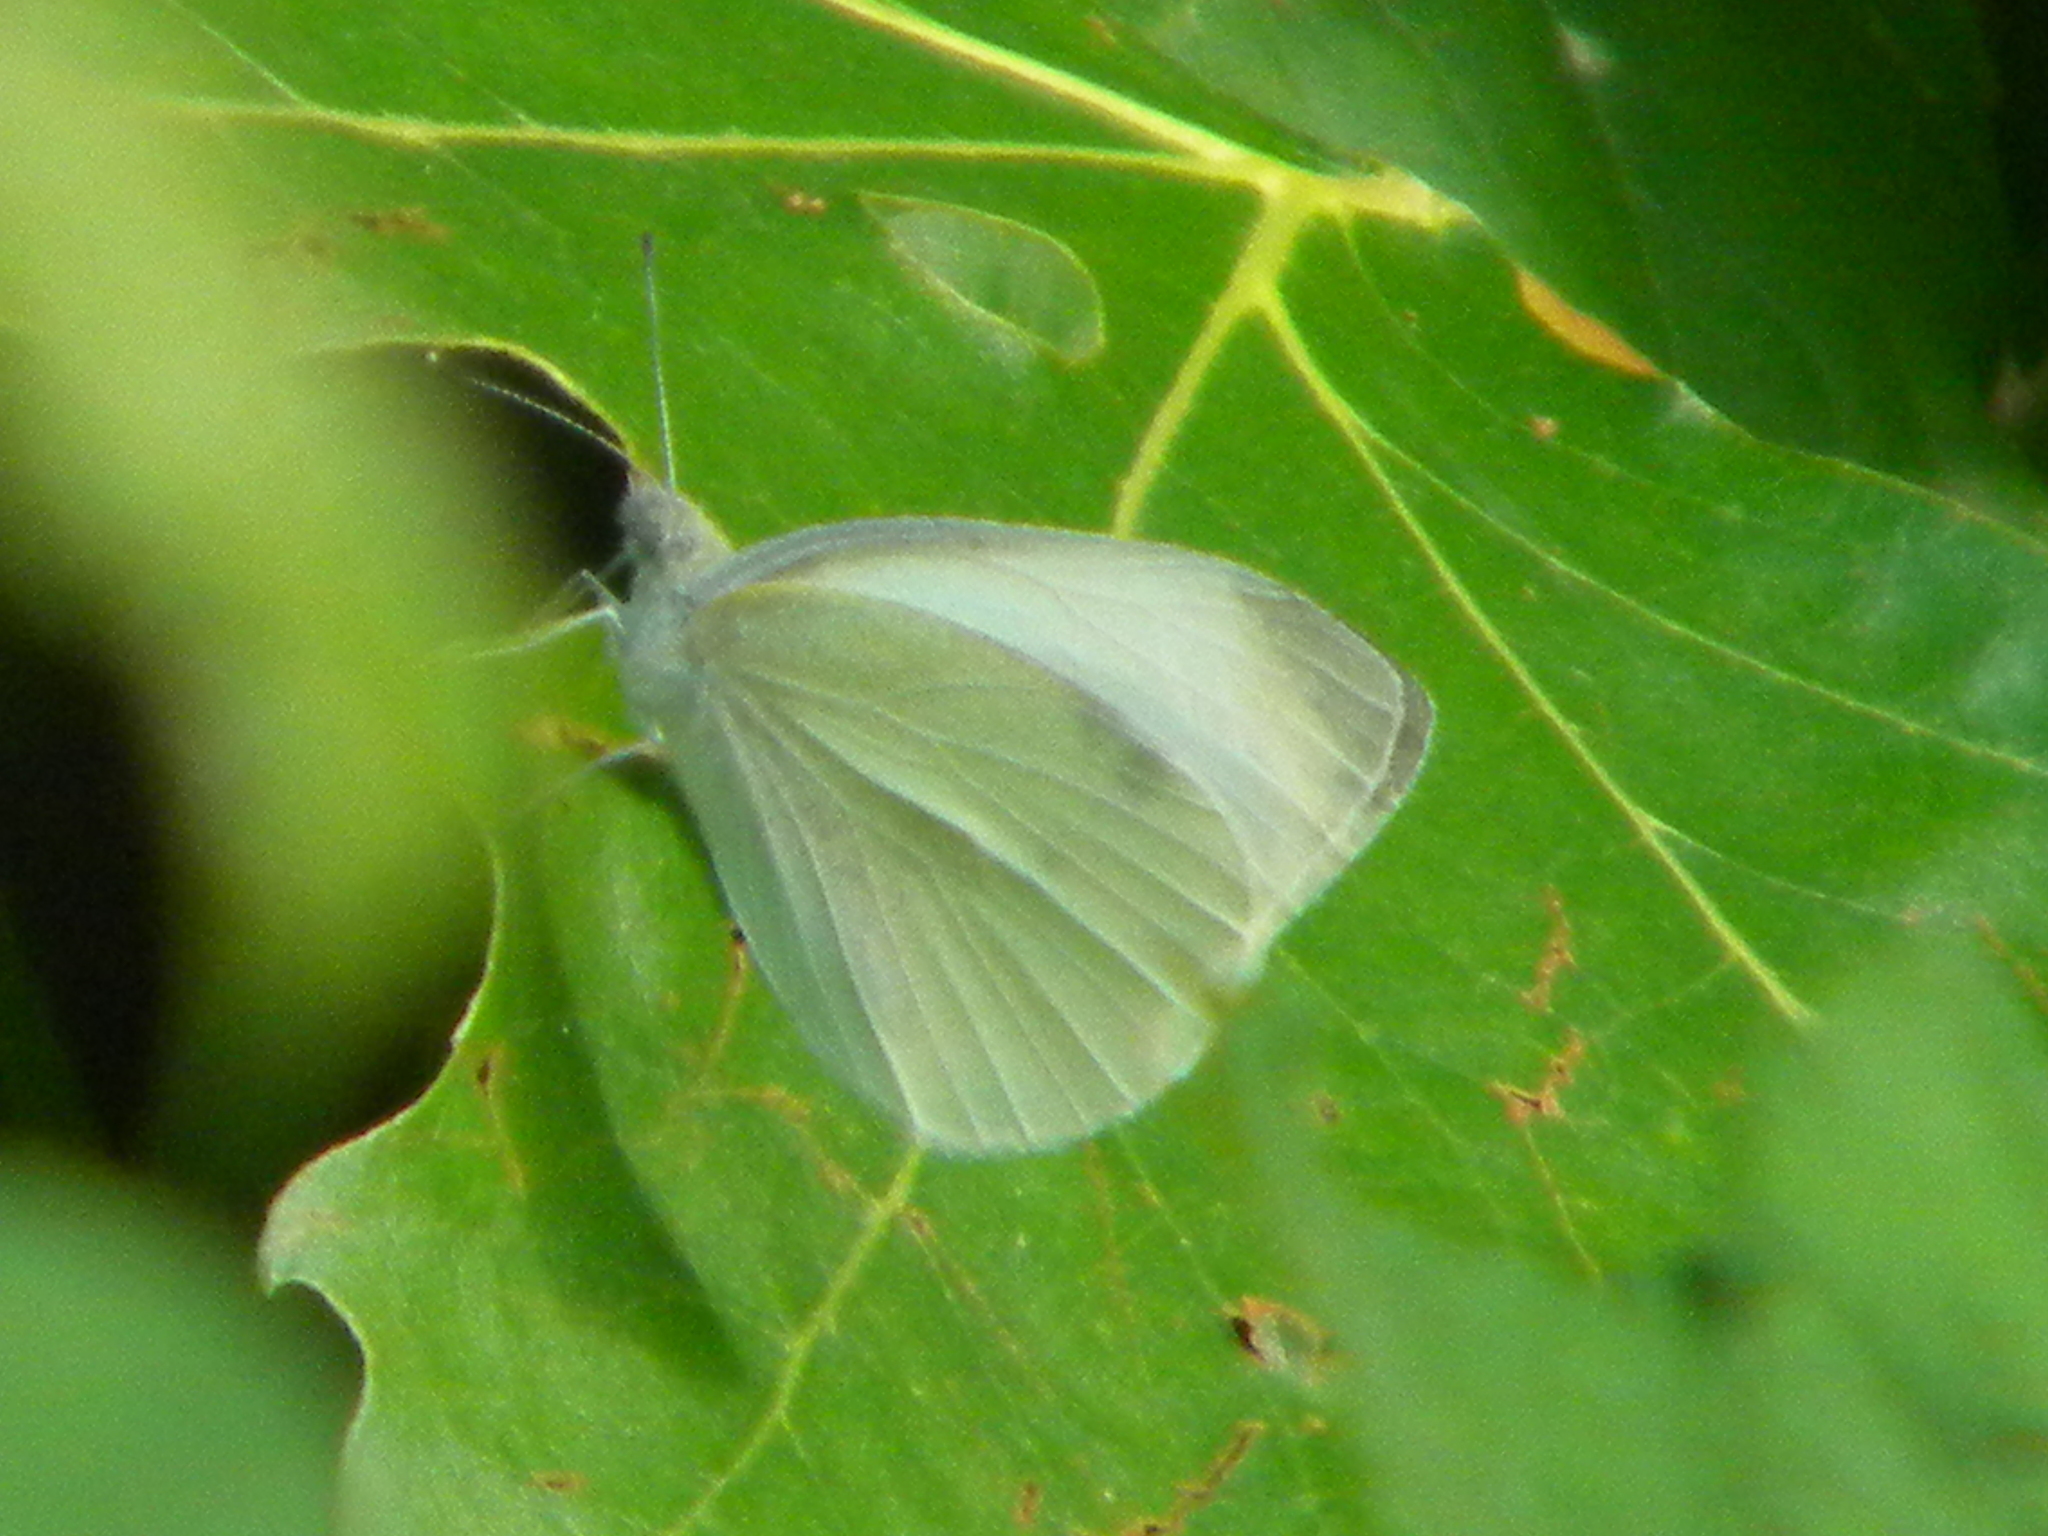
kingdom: Animalia
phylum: Arthropoda
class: Insecta
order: Lepidoptera
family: Pieridae
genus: Pieris
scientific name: Pieris rapae
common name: Small white
